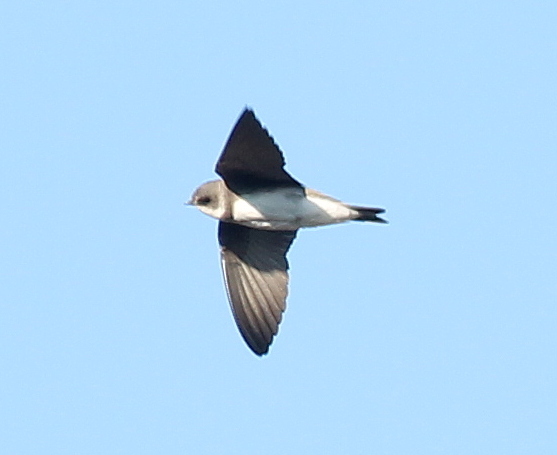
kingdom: Animalia
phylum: Chordata
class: Aves
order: Passeriformes
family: Hirundinidae
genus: Riparia
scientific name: Riparia riparia
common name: Sand martin
